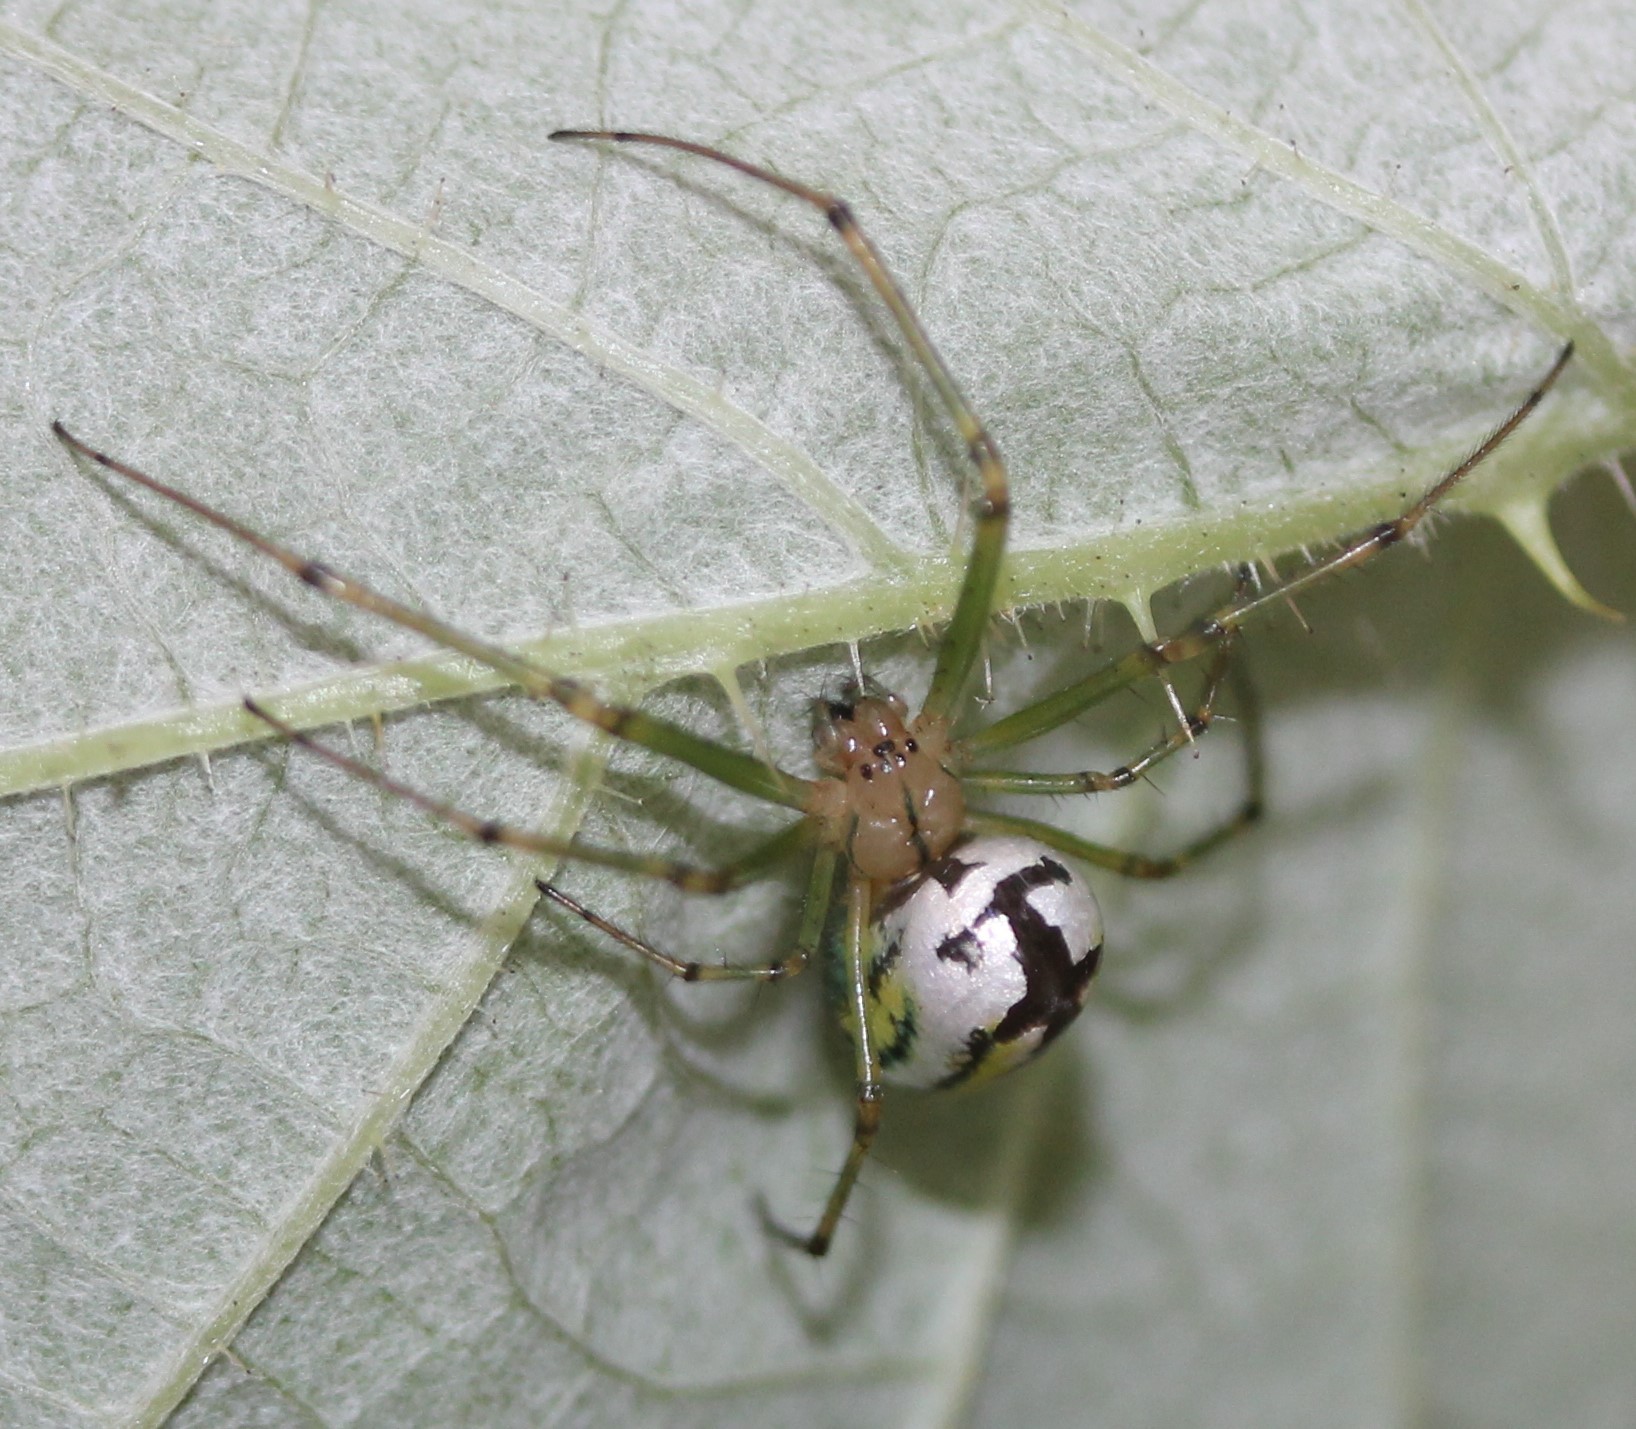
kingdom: Animalia
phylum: Arthropoda
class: Arachnida
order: Araneae
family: Tetragnathidae
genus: Leucauge
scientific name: Leucauge venusta
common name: Longjawed orb weavers
